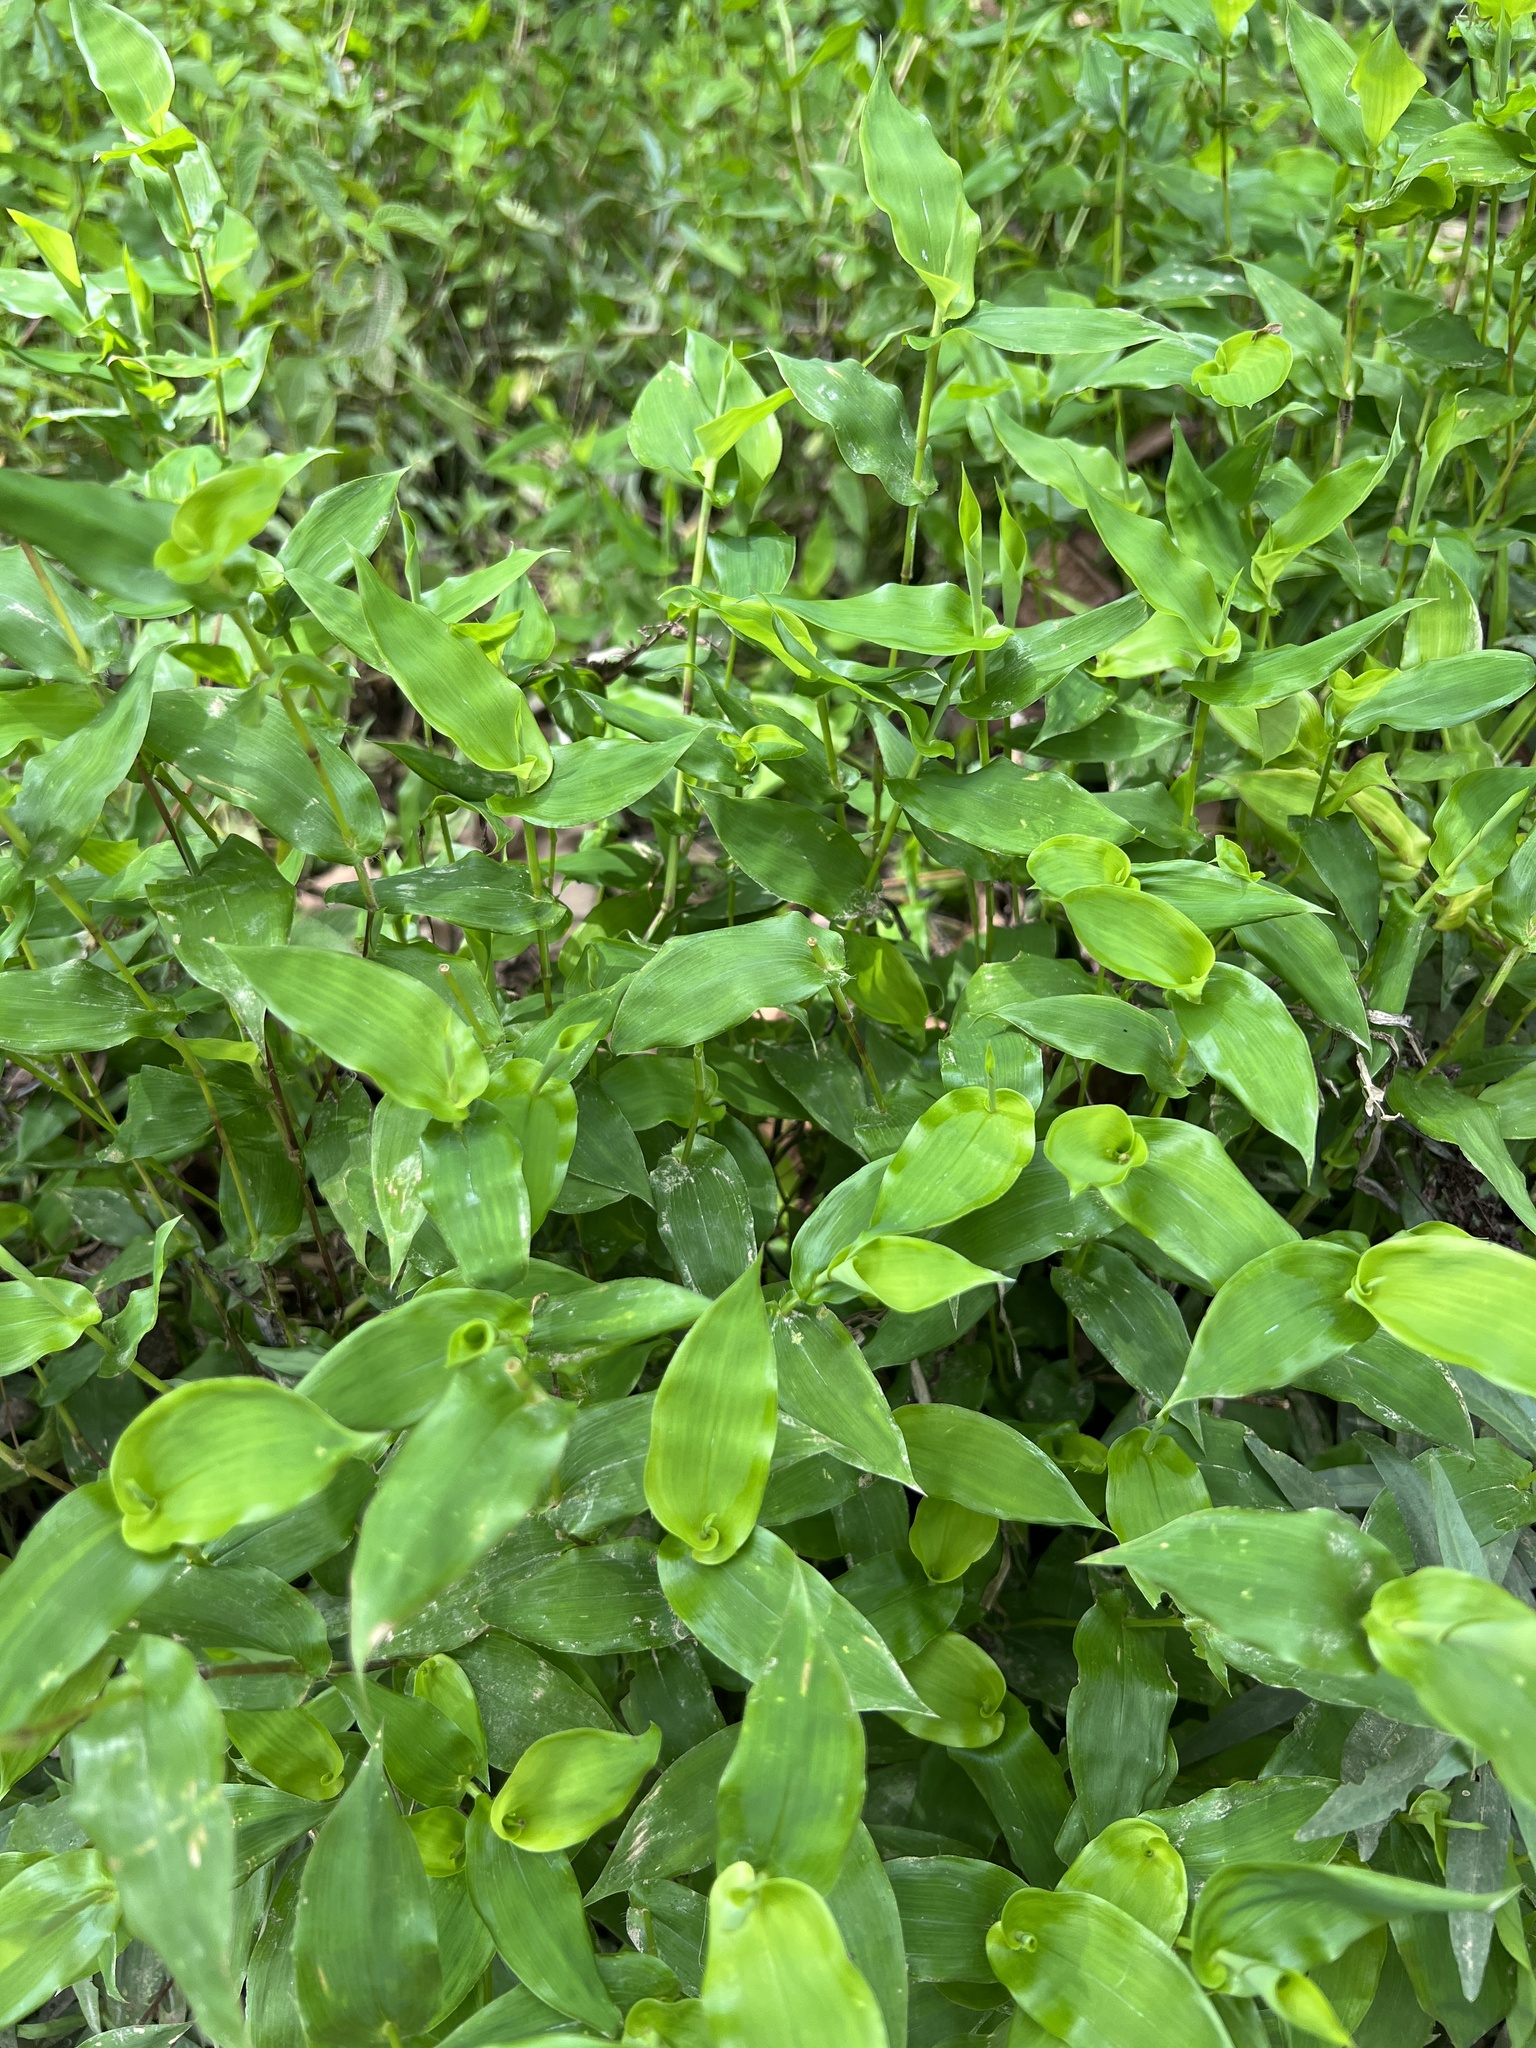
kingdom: Plantae
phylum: Tracheophyta
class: Liliopsida
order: Poales
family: Poaceae
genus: Arthraxon
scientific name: Arthraxon hispidus
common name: Small carpgrass
